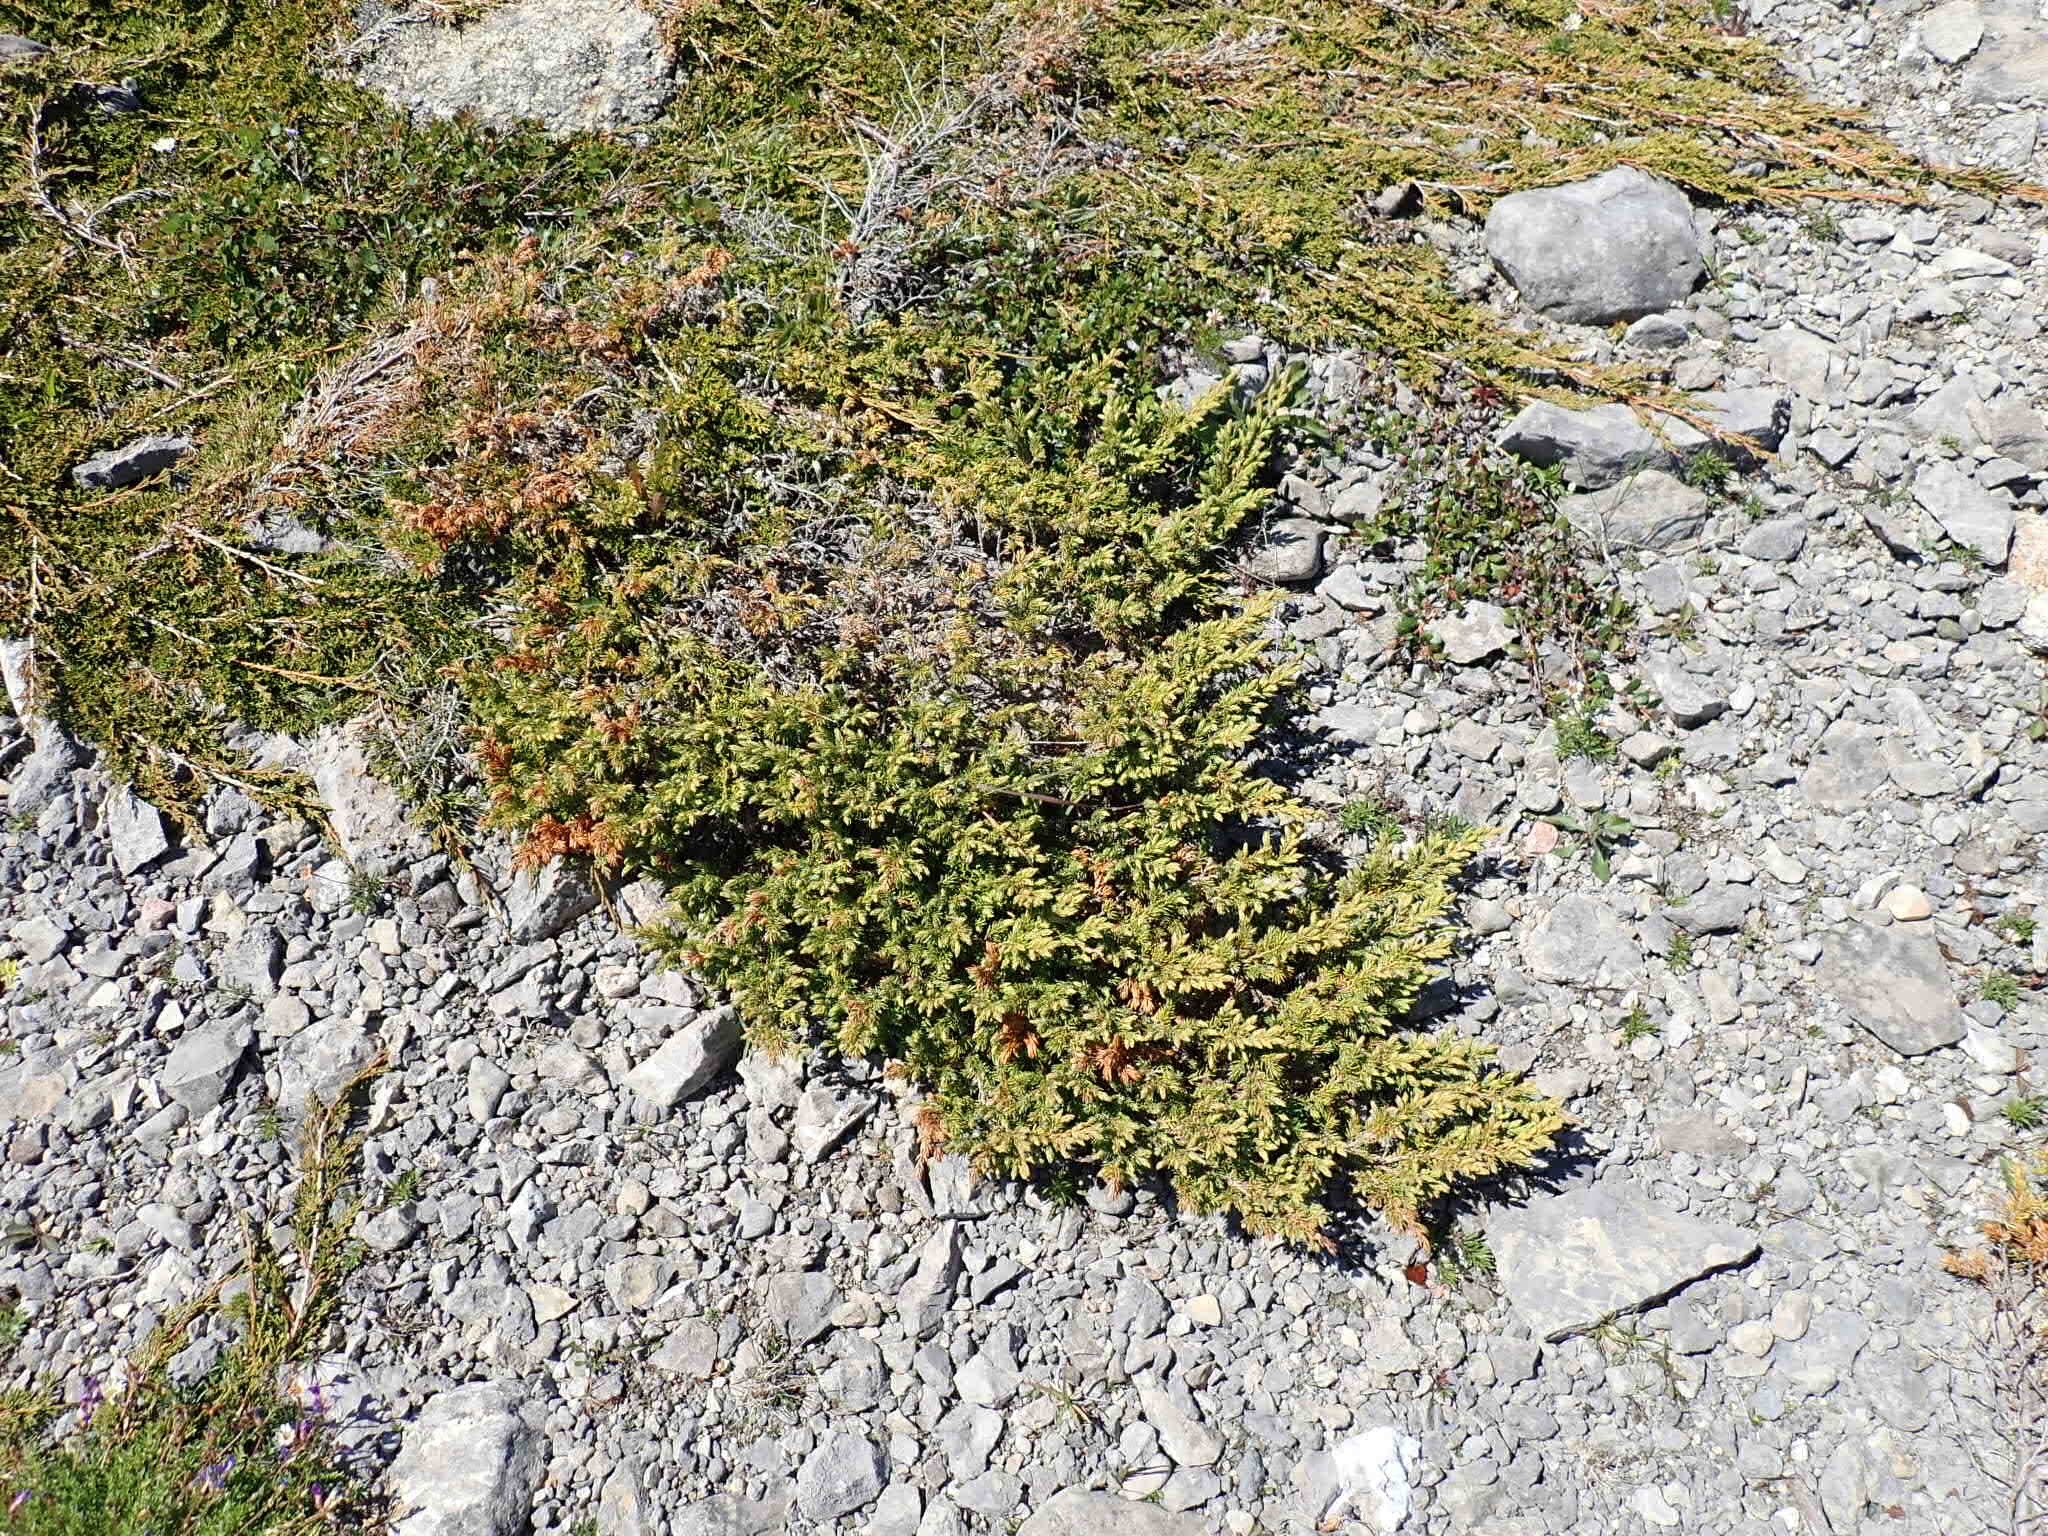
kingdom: Plantae
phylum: Tracheophyta
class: Pinopsida
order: Pinales
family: Cupressaceae
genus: Juniperus
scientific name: Juniperus communis
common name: Common juniper
